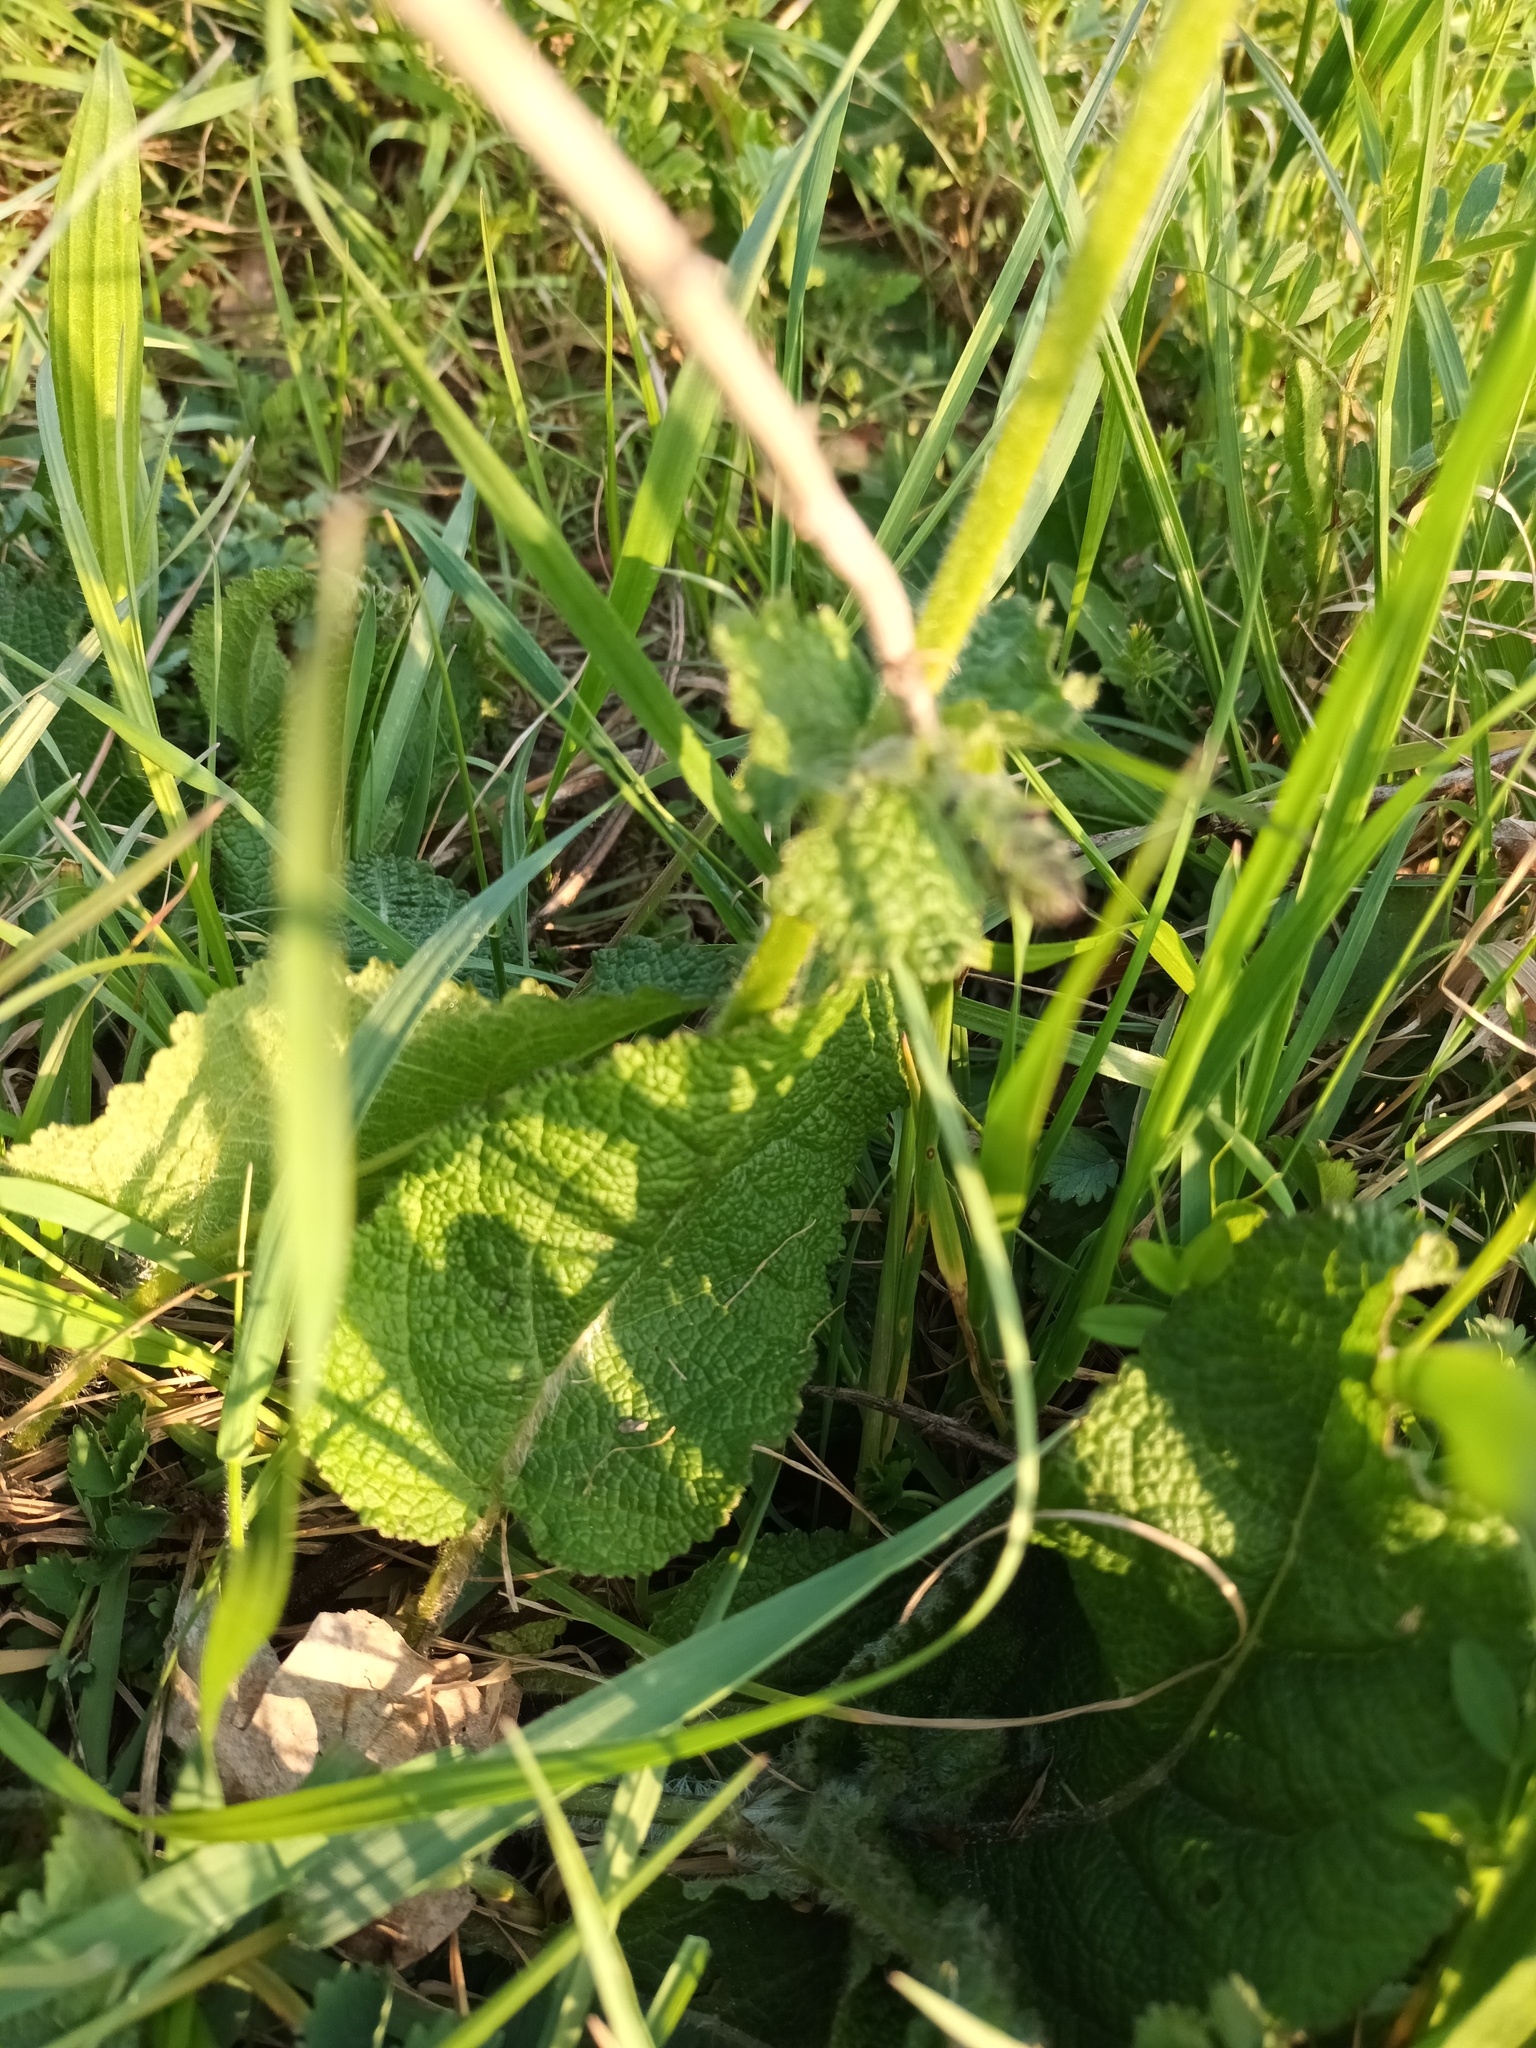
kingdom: Plantae
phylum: Tracheophyta
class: Magnoliopsida
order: Lamiales
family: Lamiaceae
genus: Salvia
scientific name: Salvia pratensis
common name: Meadow sage
